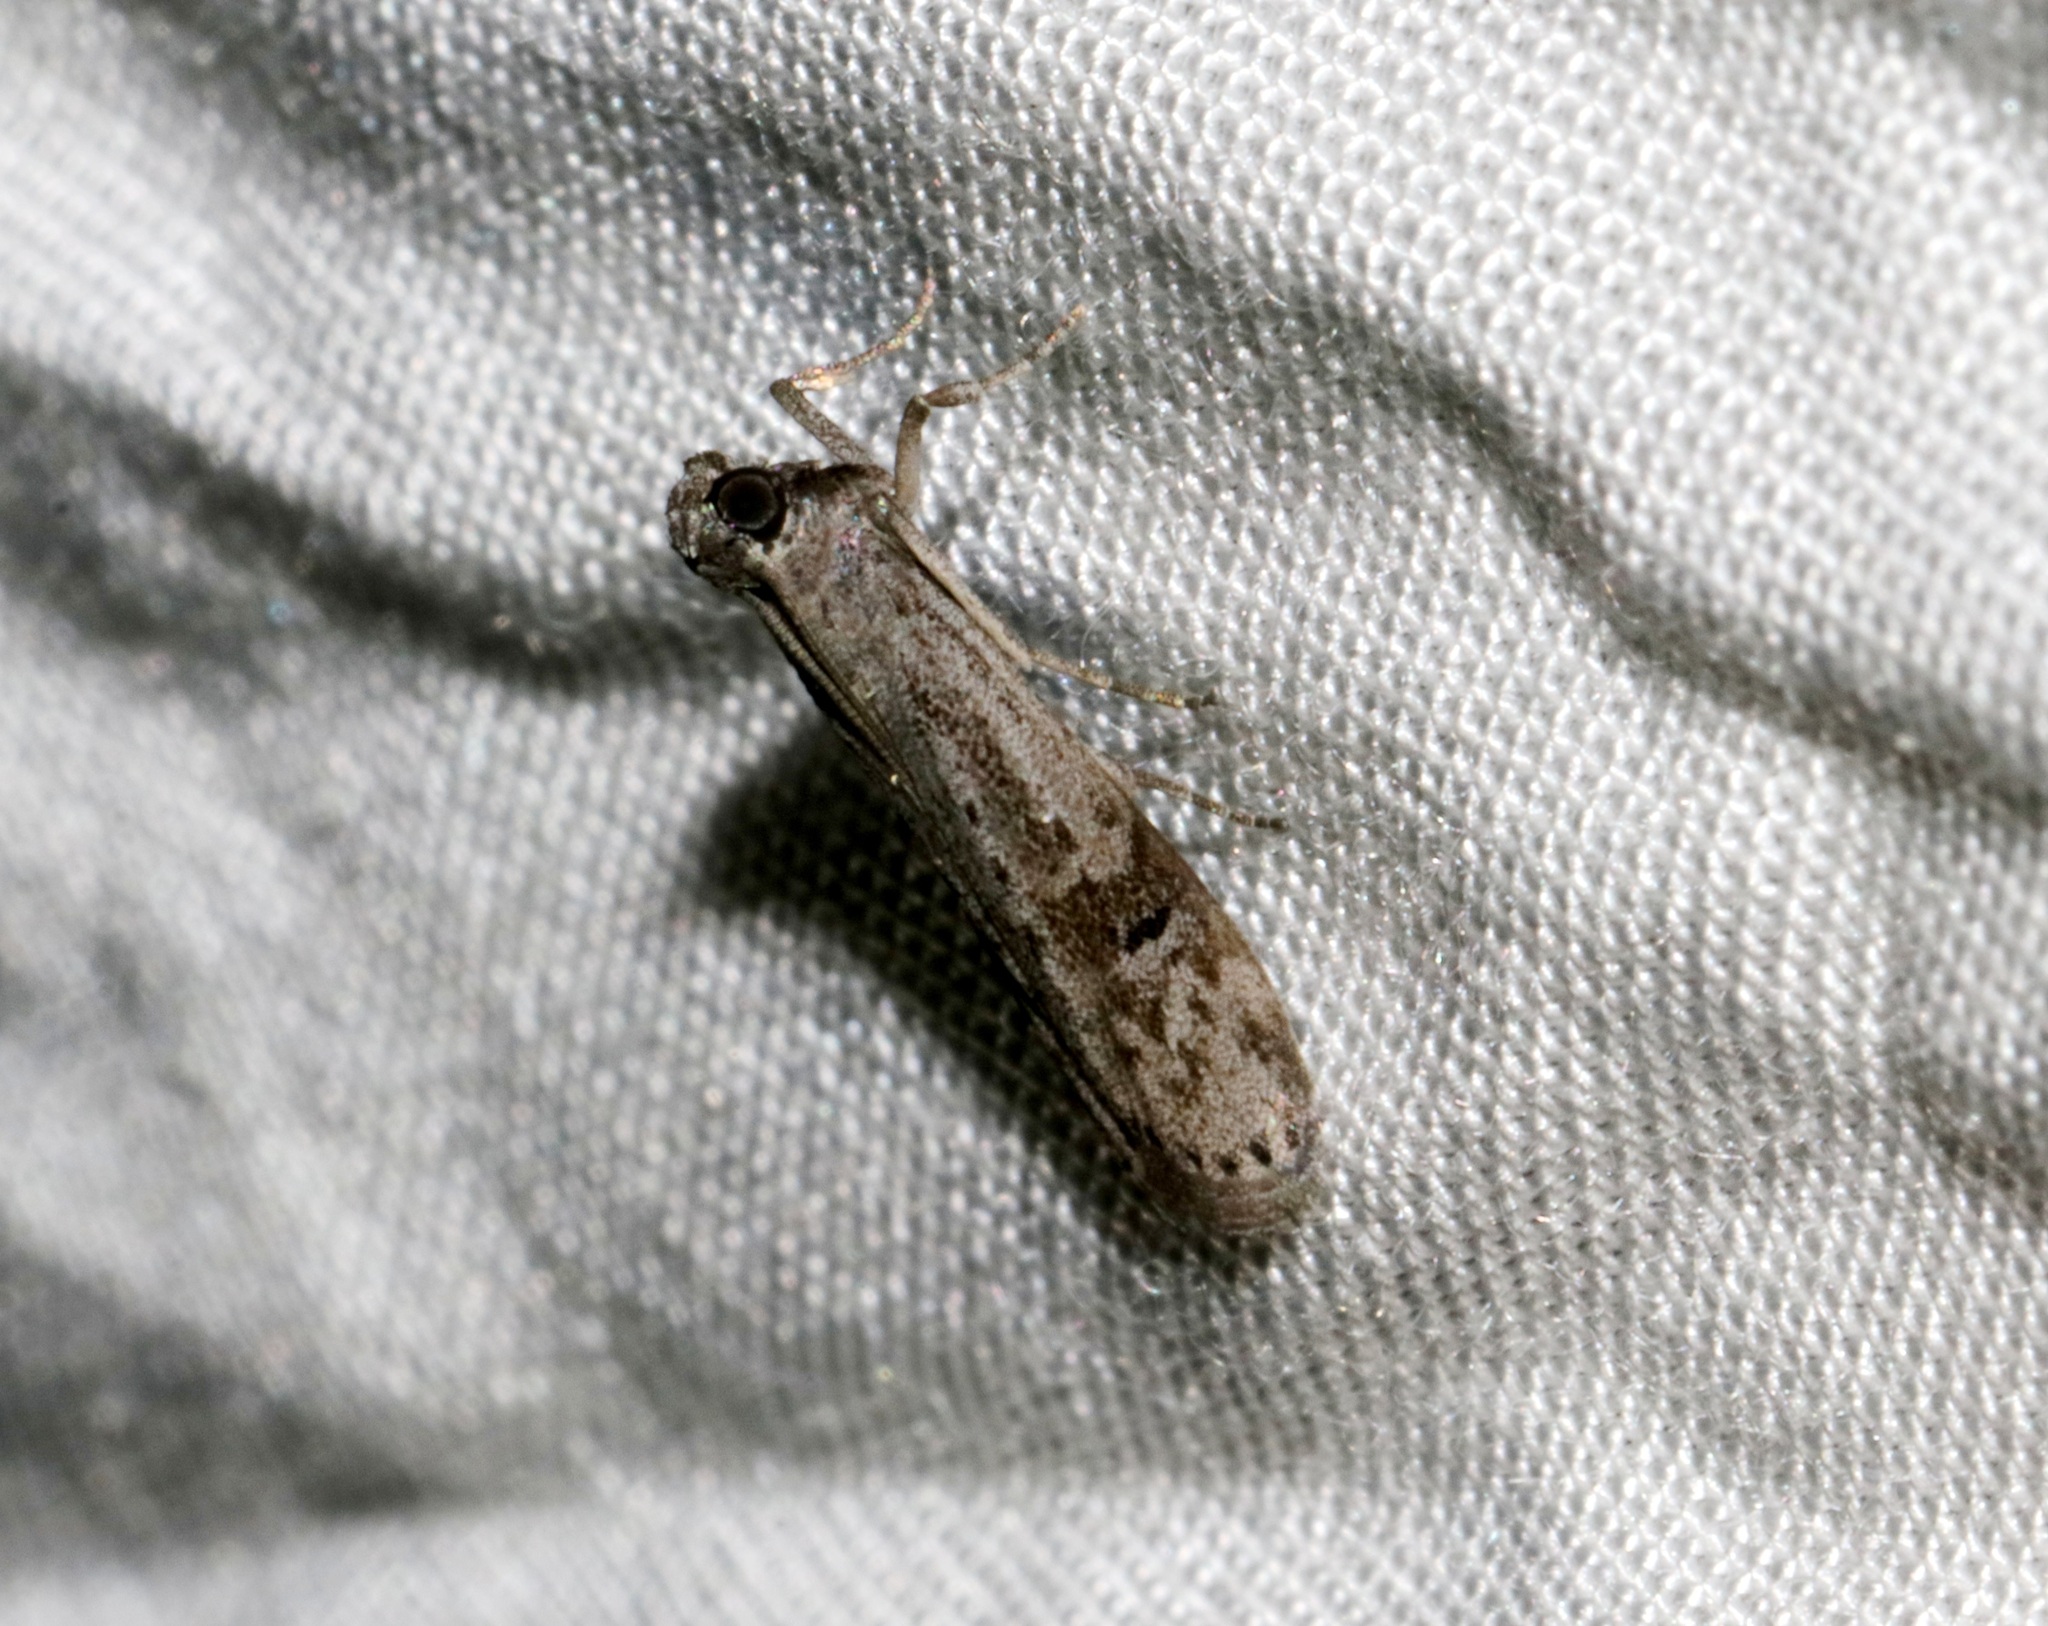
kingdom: Animalia
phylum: Arthropoda
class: Insecta
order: Lepidoptera
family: Pyralidae
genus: Copamyntis
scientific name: Copamyntis leptocosma
